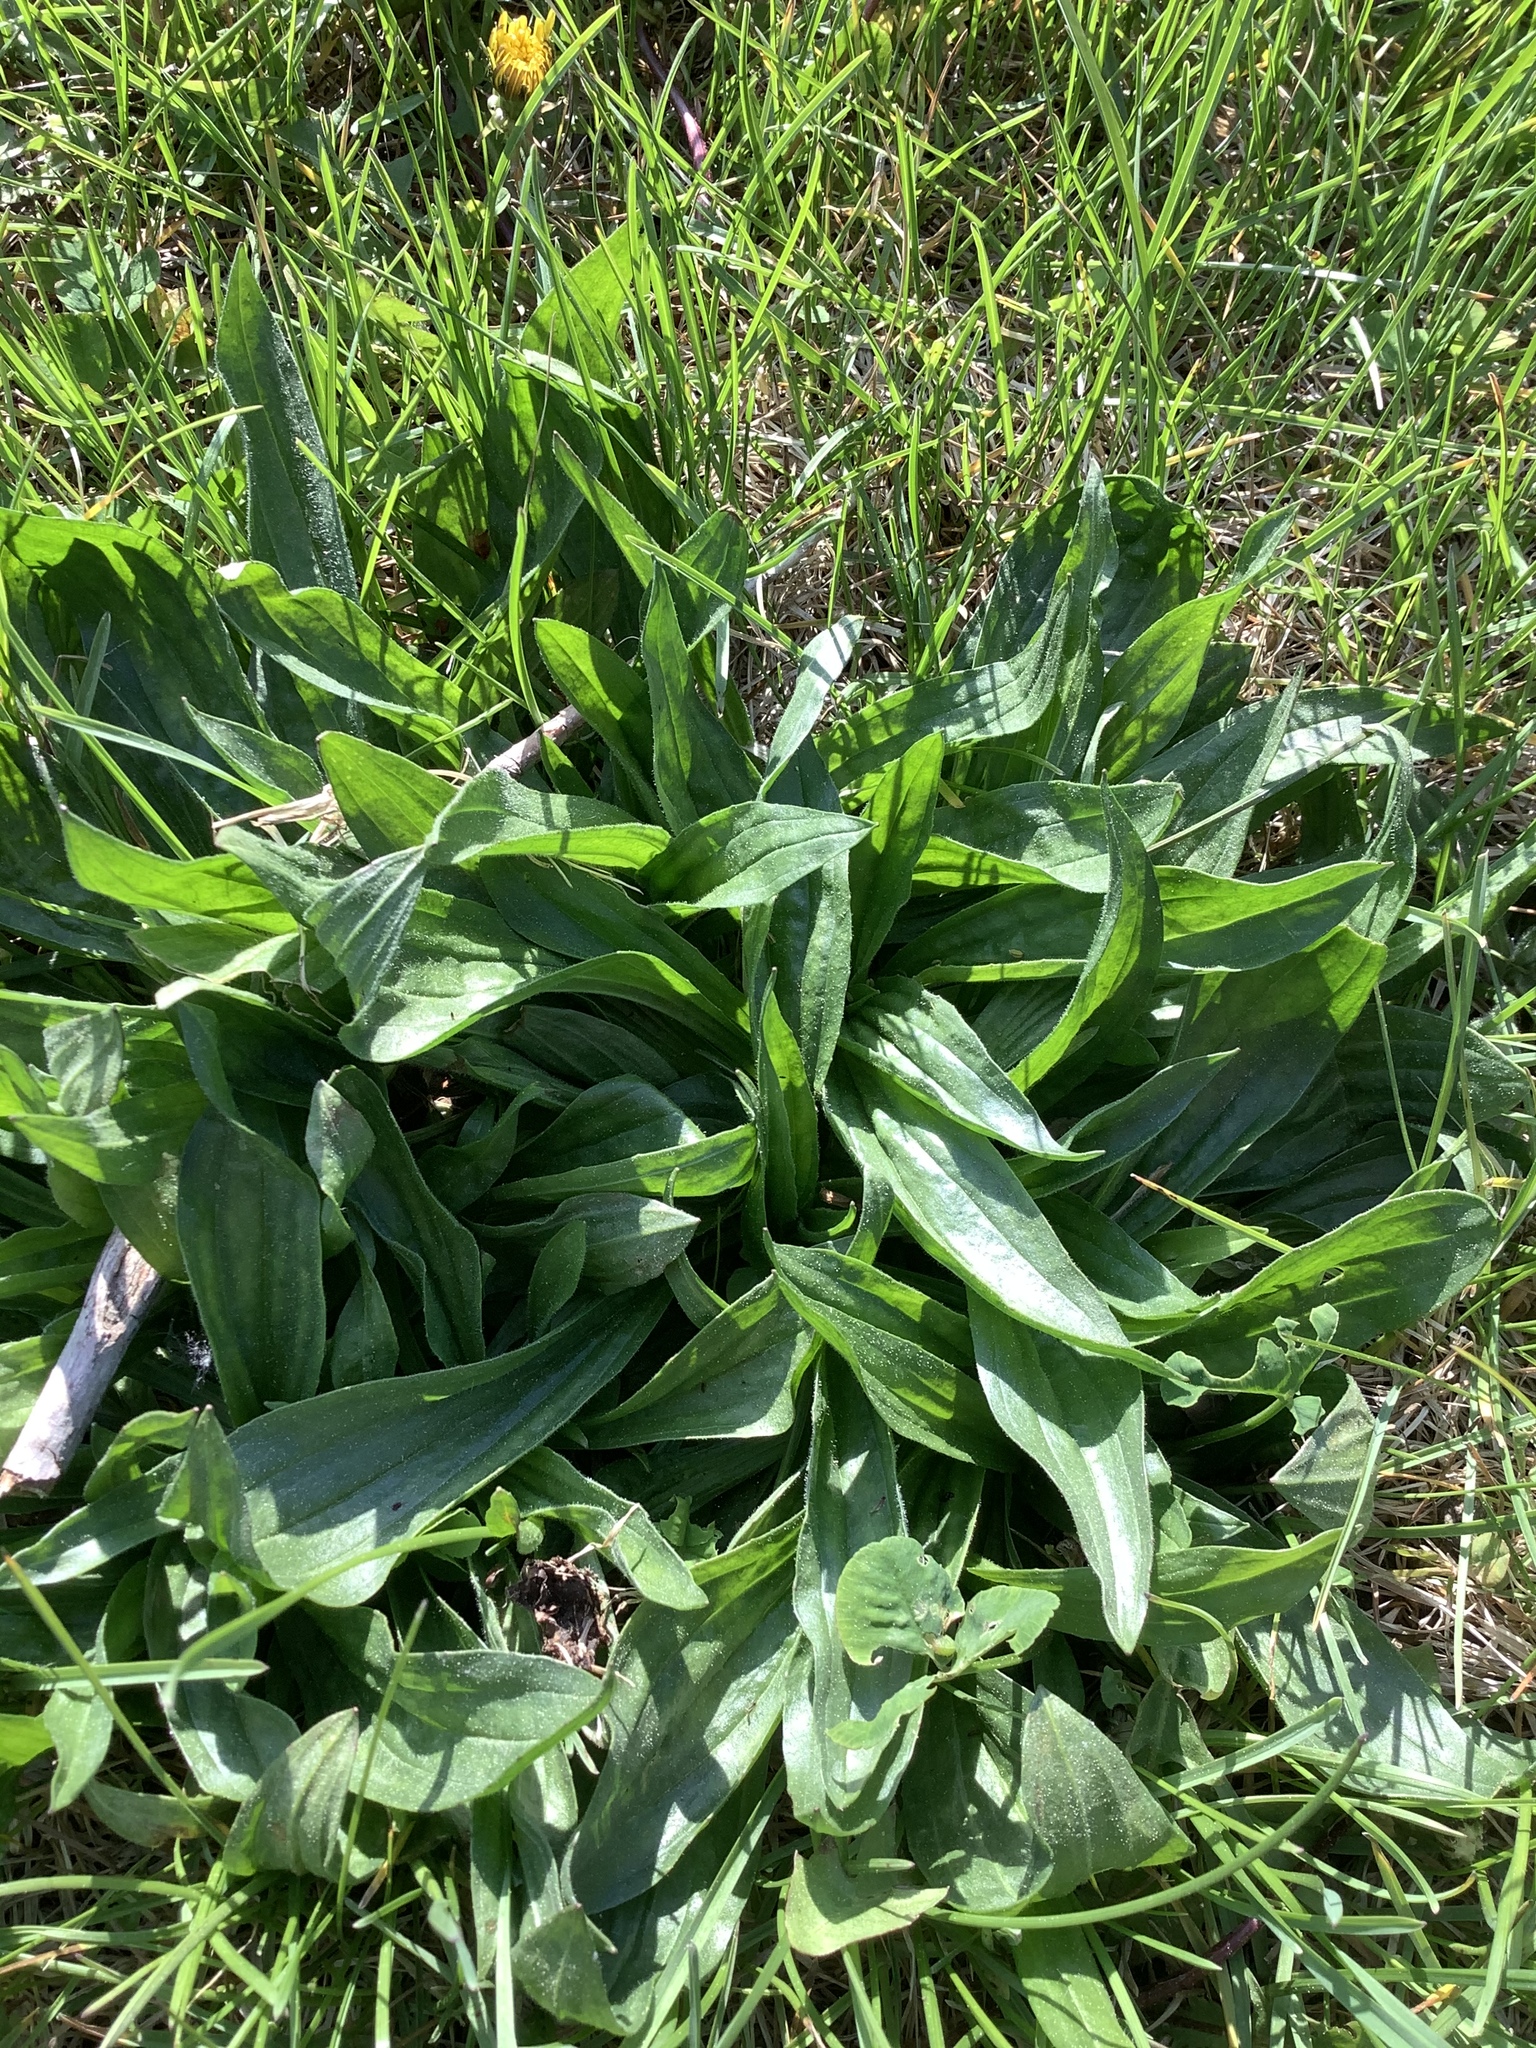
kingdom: Plantae
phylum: Tracheophyta
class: Magnoliopsida
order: Lamiales
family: Plantaginaceae
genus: Plantago
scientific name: Plantago lanceolata
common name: Ribwort plantain
